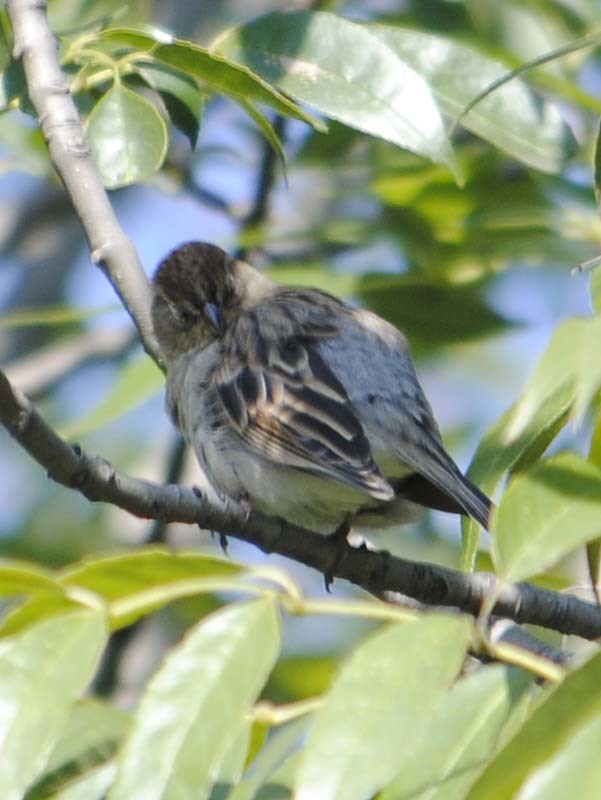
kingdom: Animalia
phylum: Chordata
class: Aves
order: Passeriformes
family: Passerellidae
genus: Spizella
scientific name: Spizella passerina
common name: Chipping sparrow
